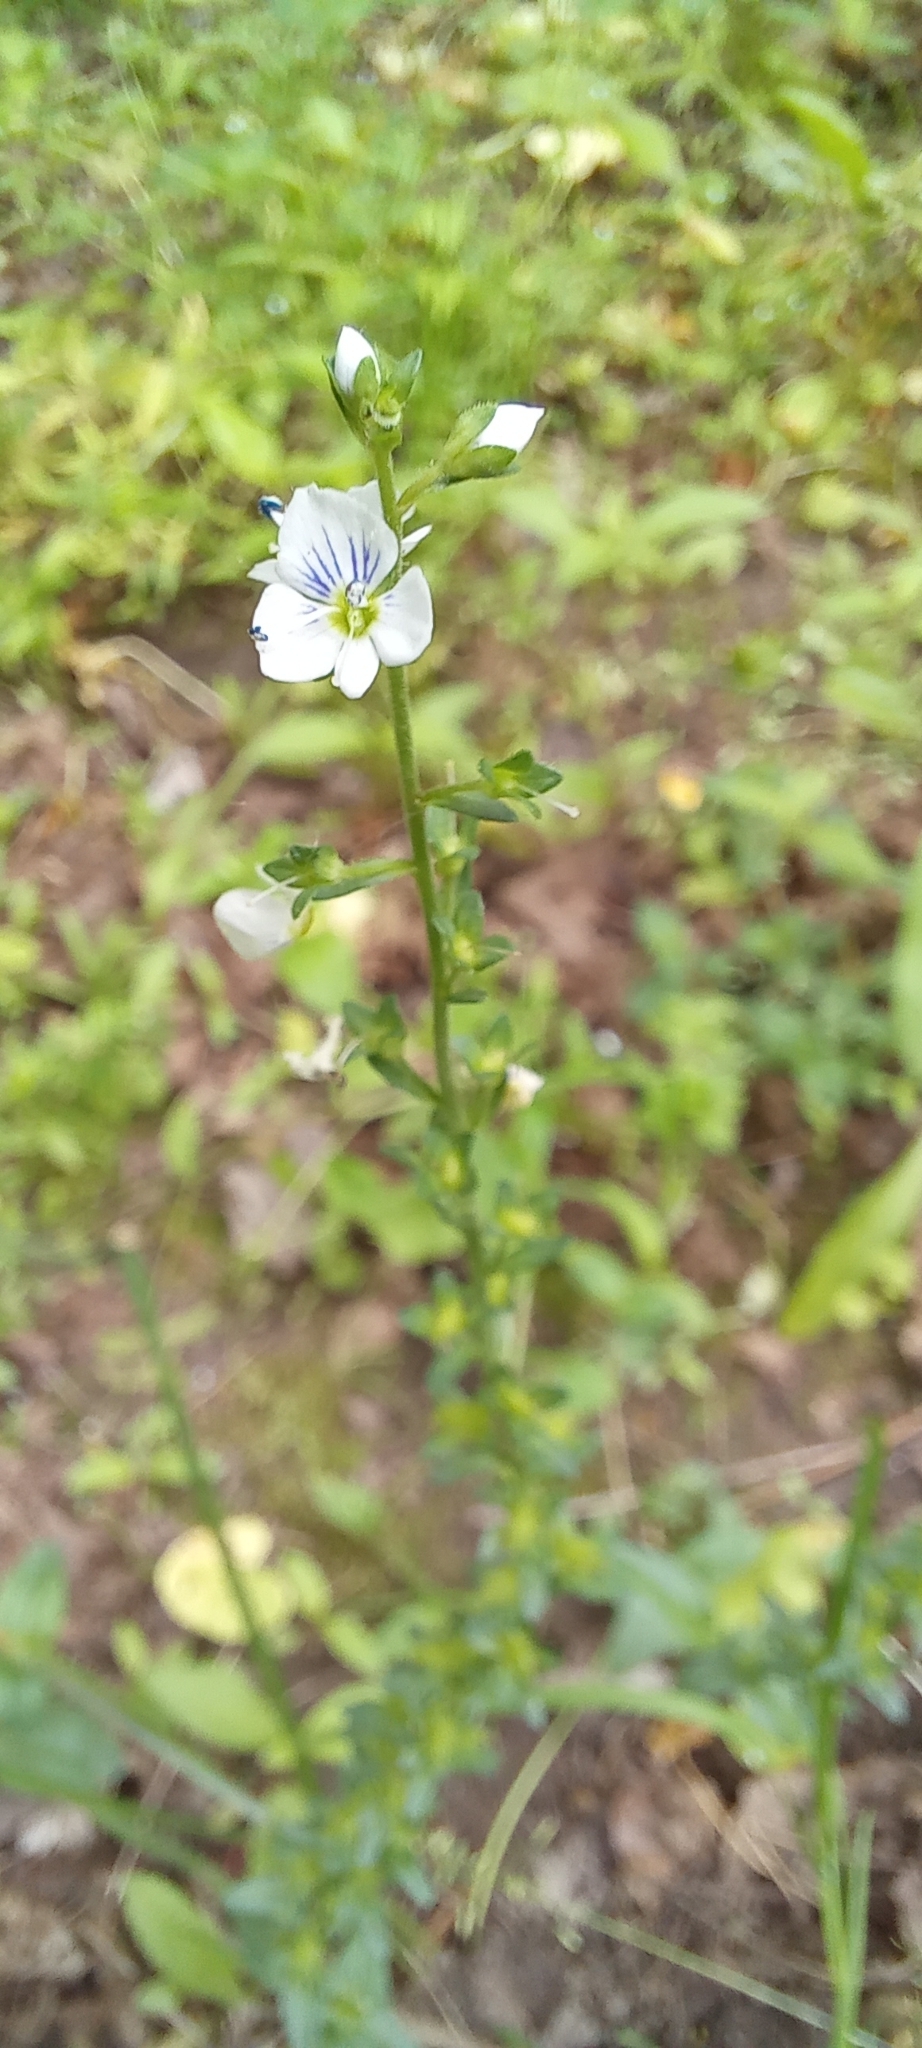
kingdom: Plantae
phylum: Tracheophyta
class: Magnoliopsida
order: Lamiales
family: Plantaginaceae
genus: Veronica
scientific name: Veronica serpyllifolia
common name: Thyme-leaved speedwell
